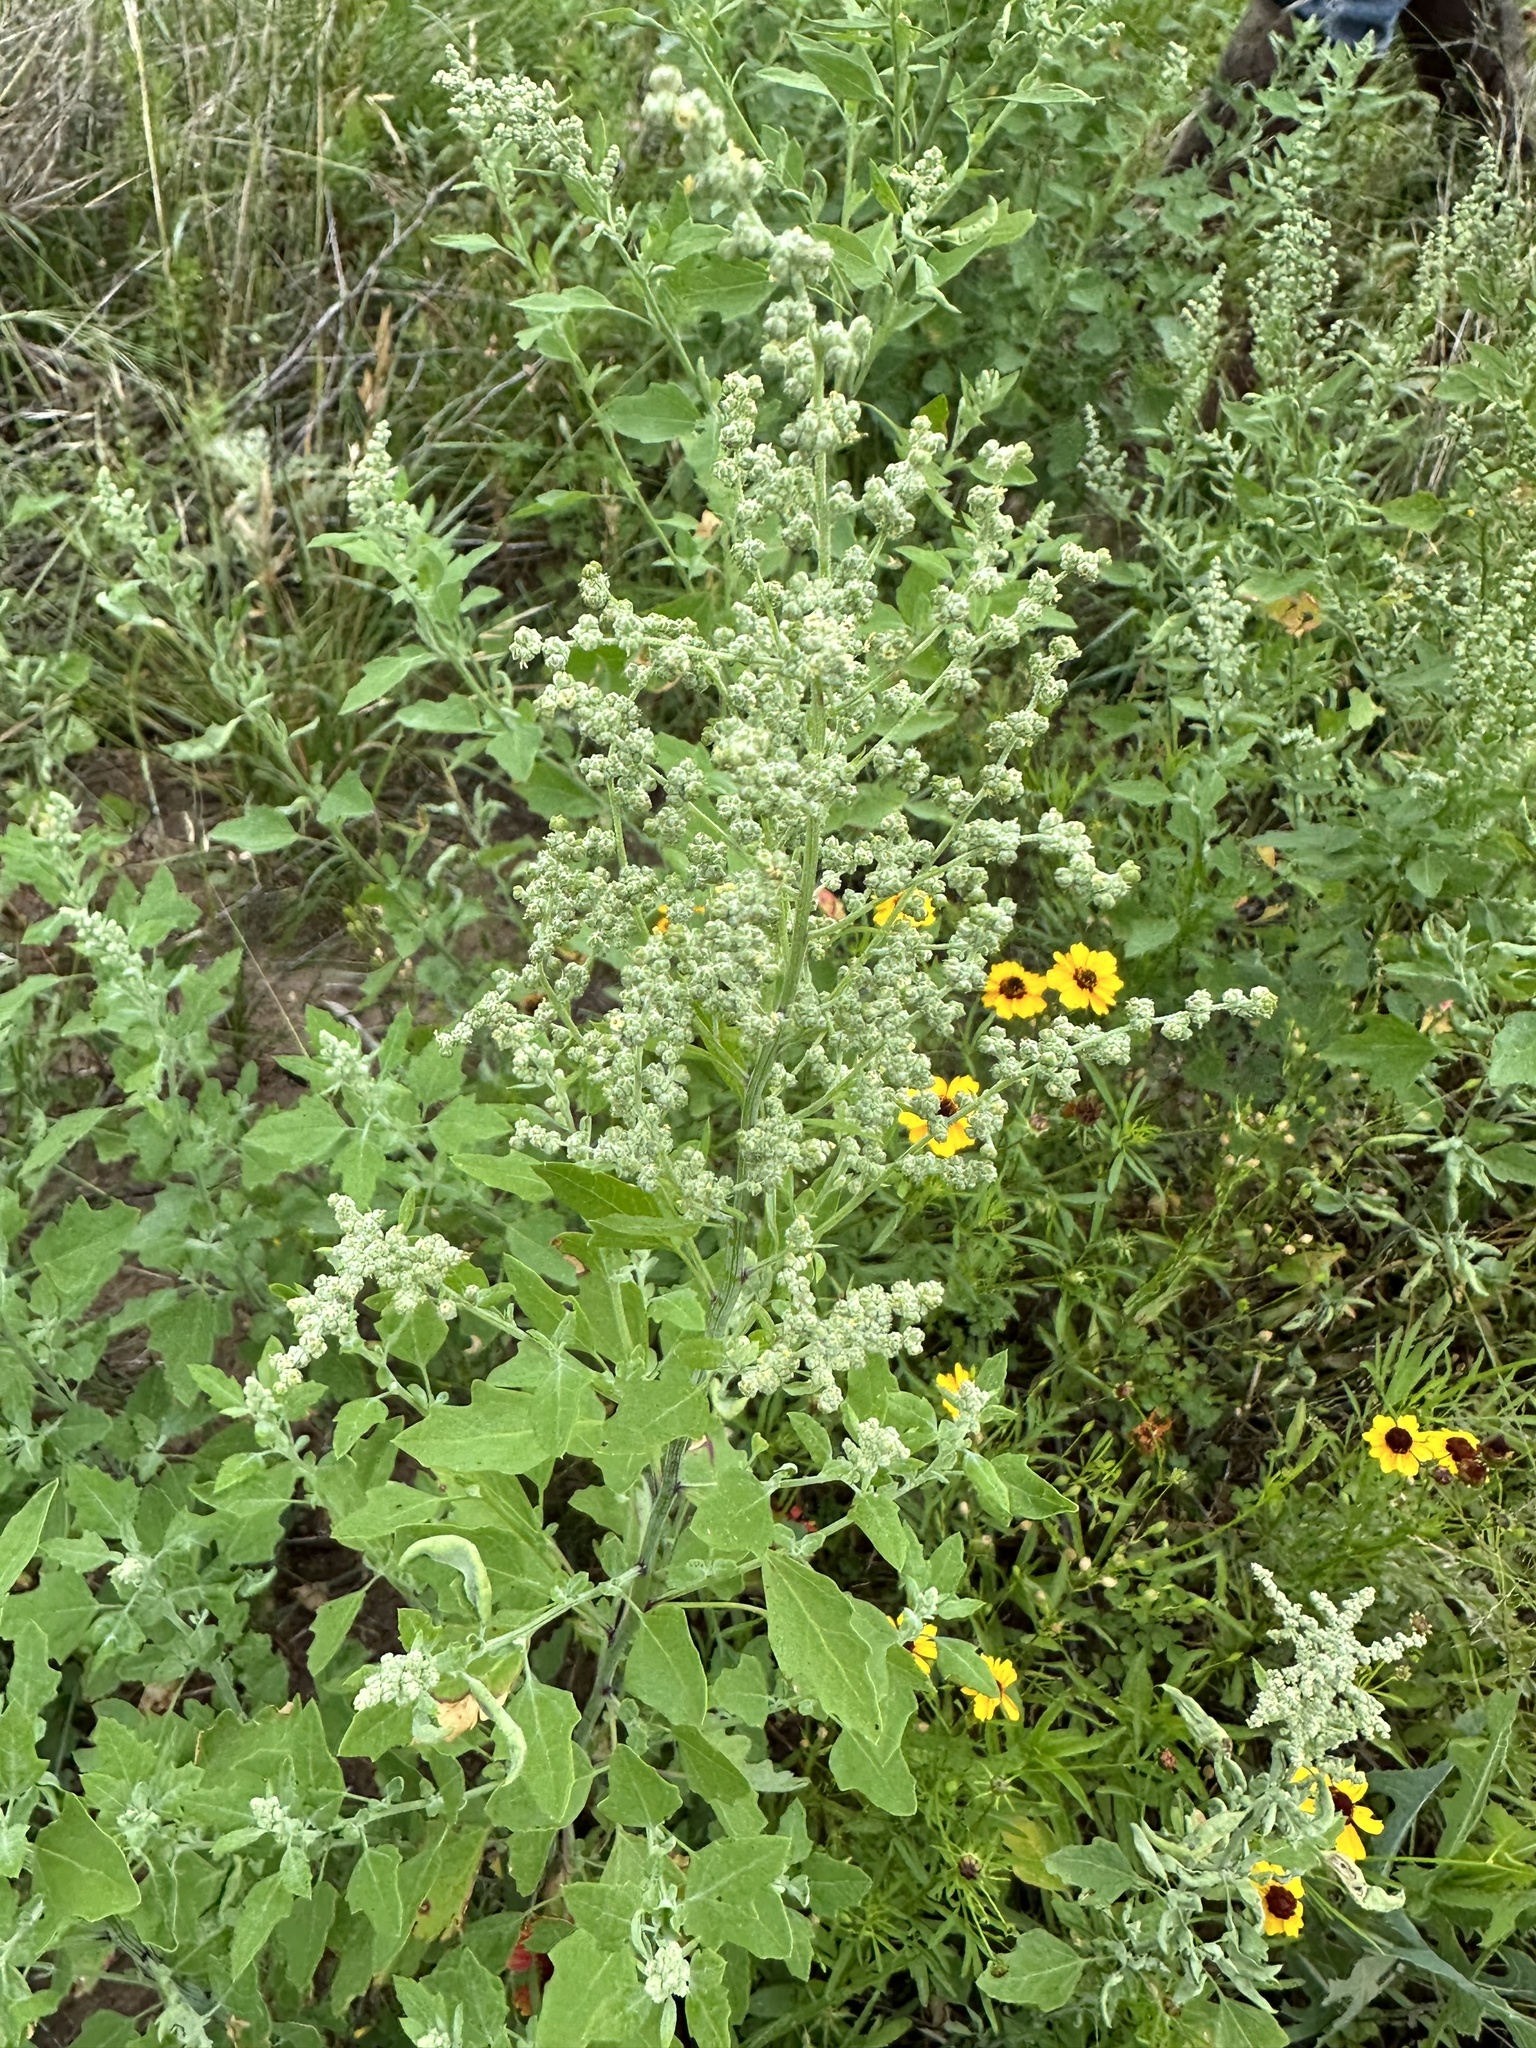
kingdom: Plantae
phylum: Tracheophyta
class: Magnoliopsida
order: Caryophyllales
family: Amaranthaceae
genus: Chenopodium
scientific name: Chenopodium album
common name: Fat-hen
